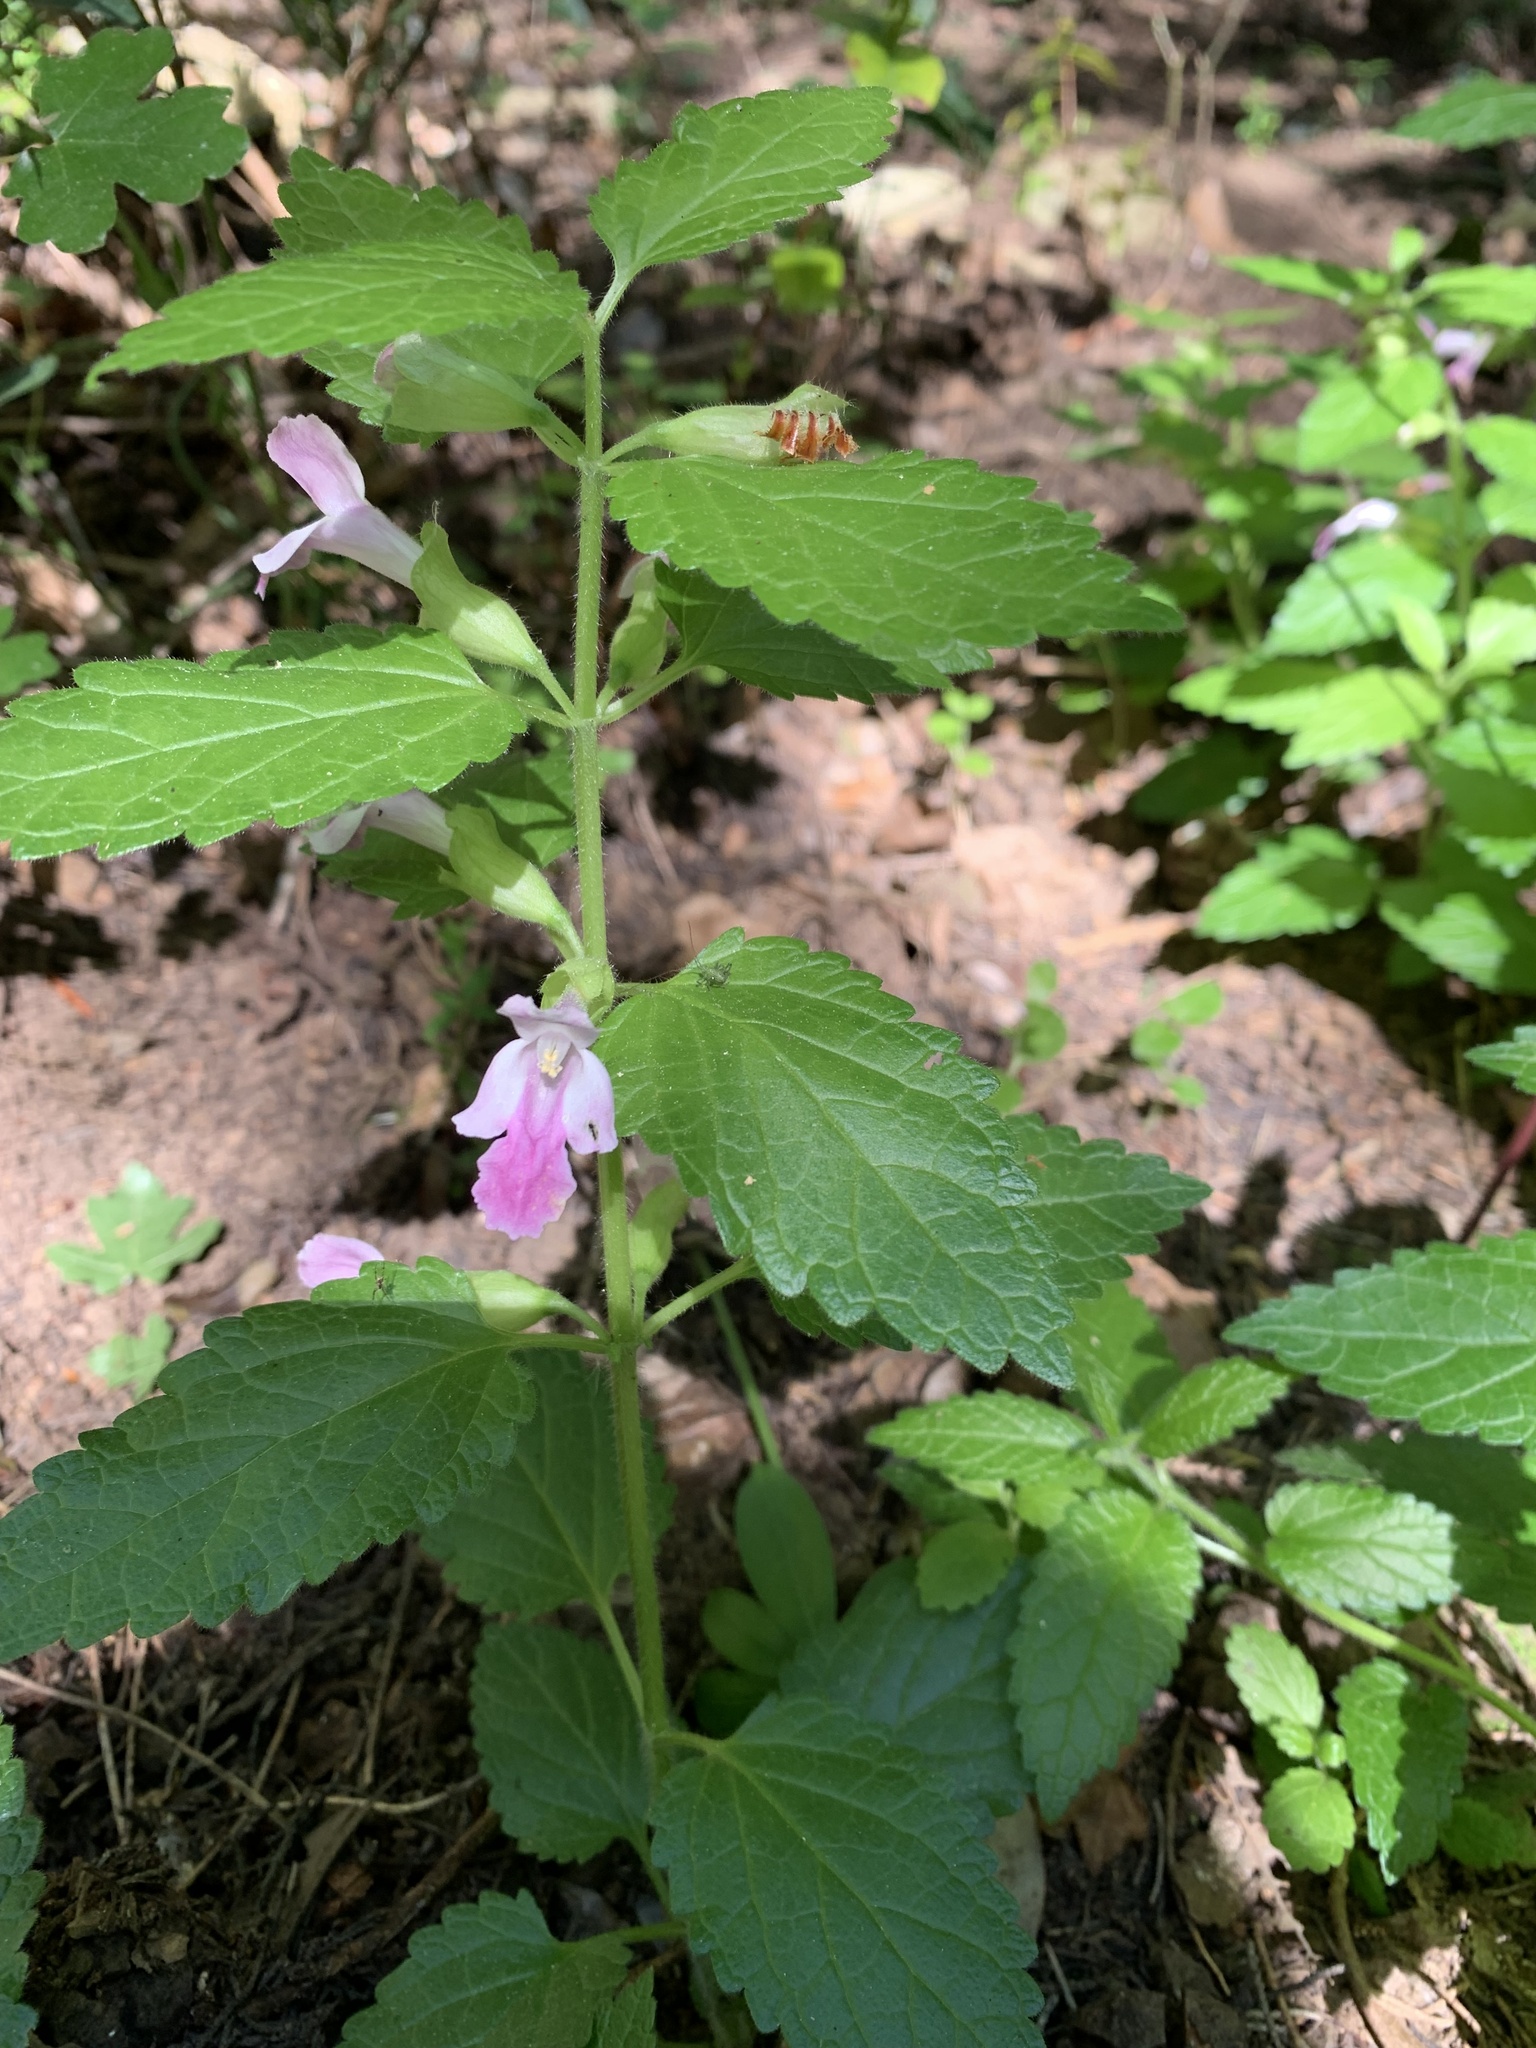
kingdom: Plantae
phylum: Tracheophyta
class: Magnoliopsida
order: Lamiales
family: Lamiaceae
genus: Melittis
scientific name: Melittis melissophyllum
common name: Bastard balm
